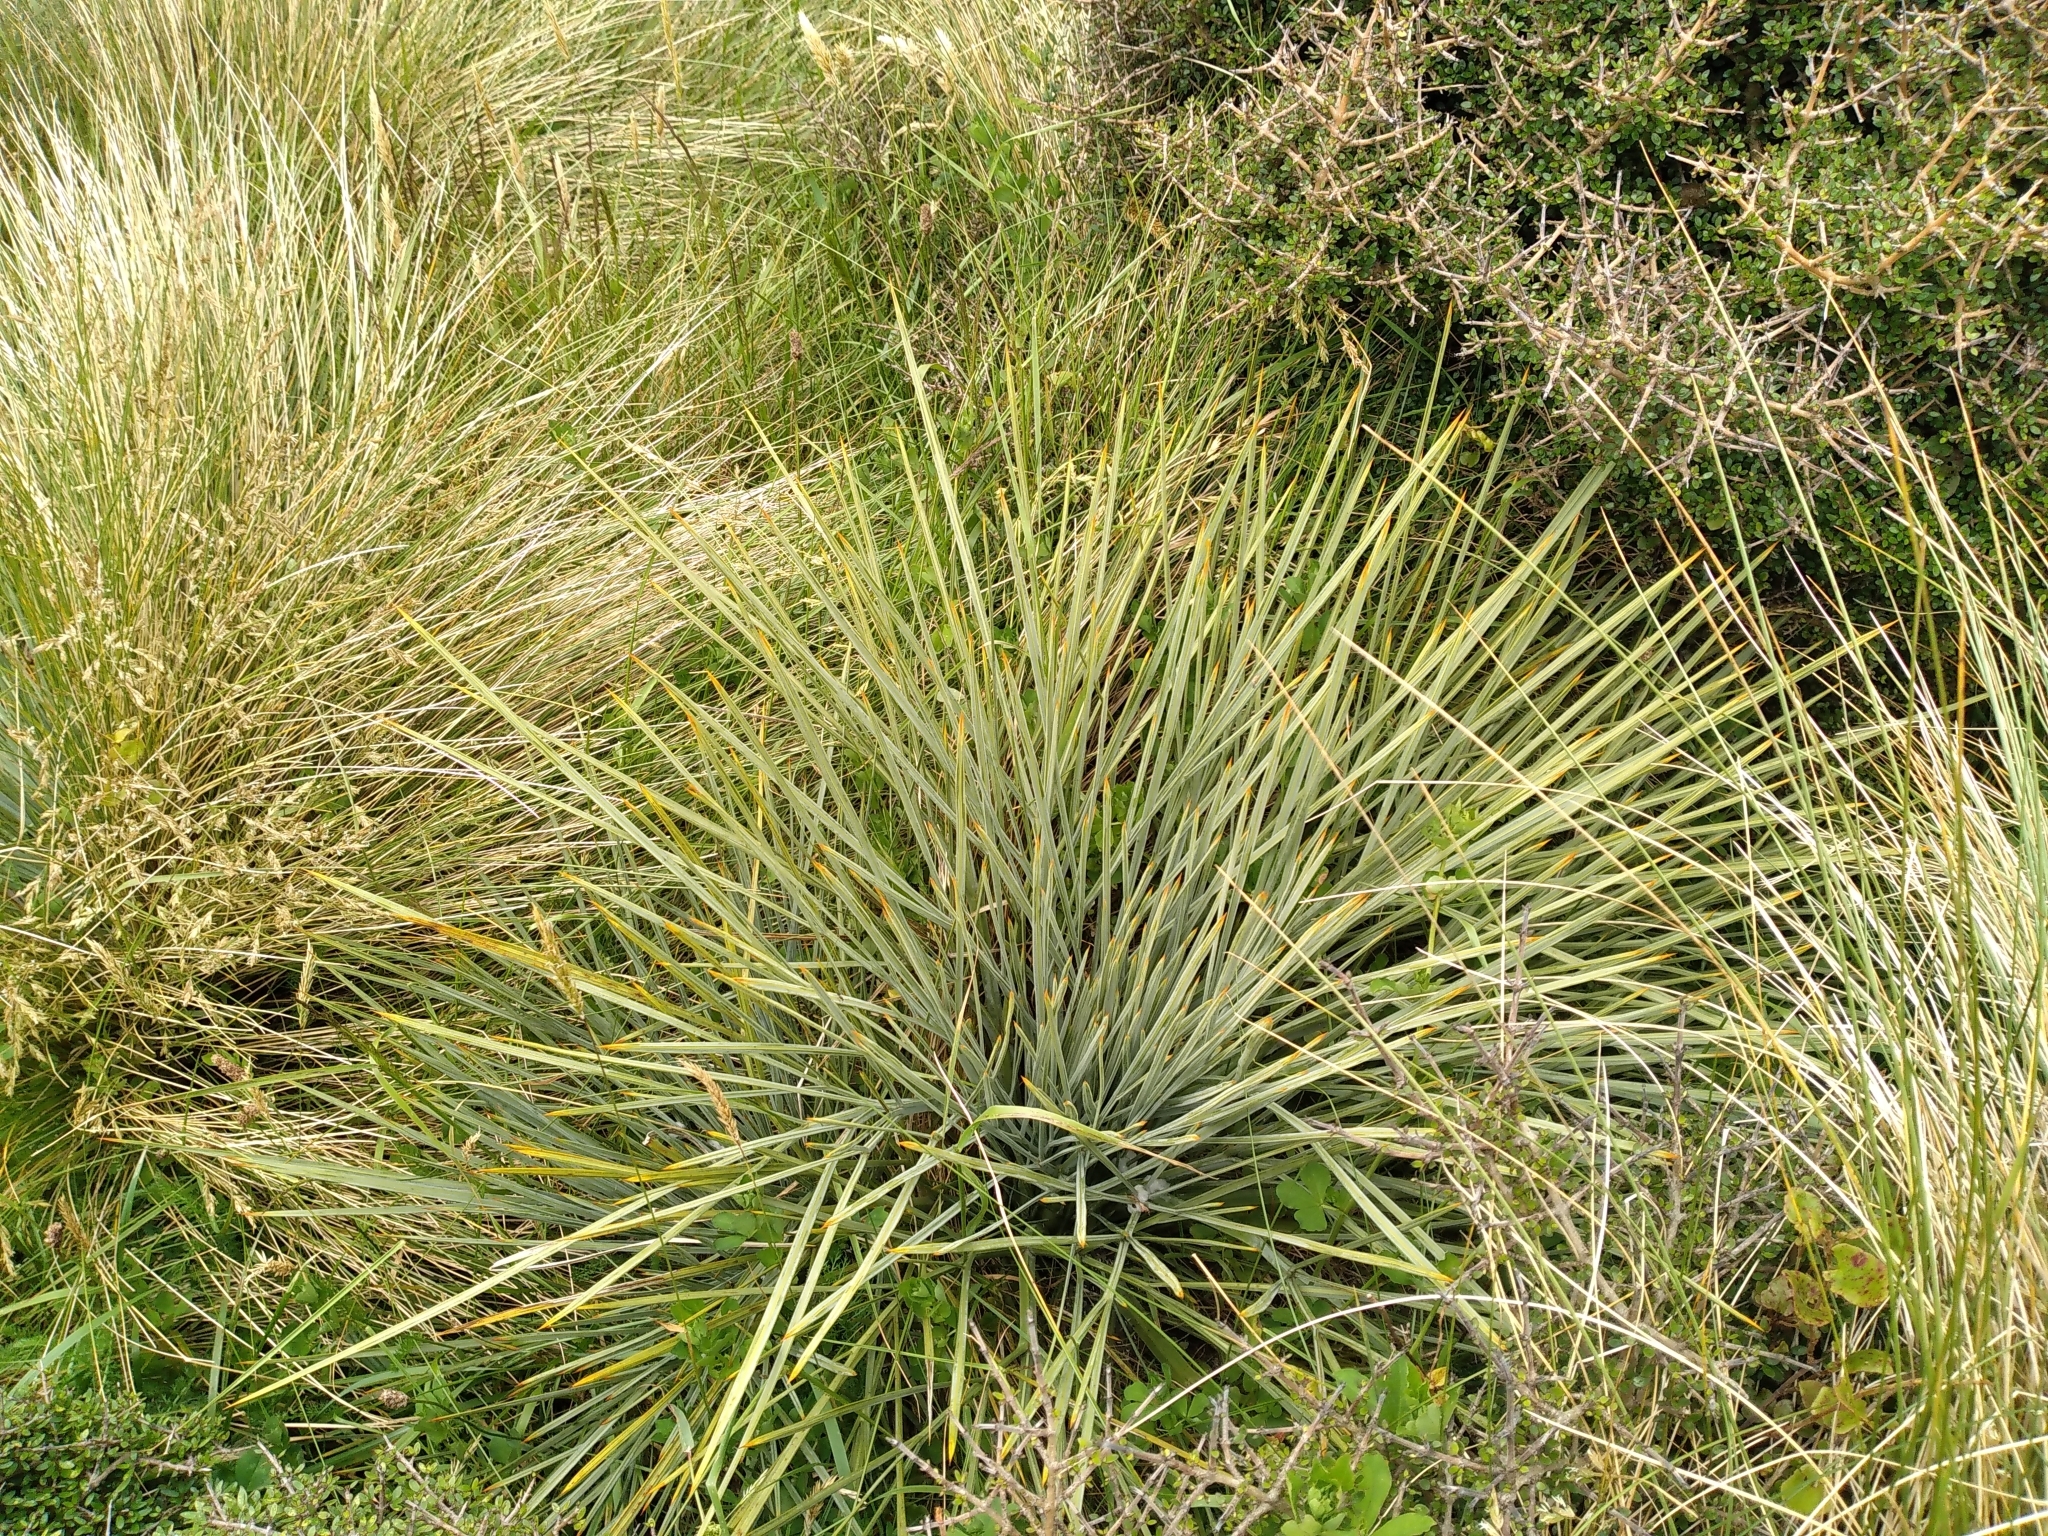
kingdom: Plantae
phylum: Tracheophyta
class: Magnoliopsida
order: Apiales
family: Apiaceae
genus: Aciphylla
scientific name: Aciphylla squarrosa
